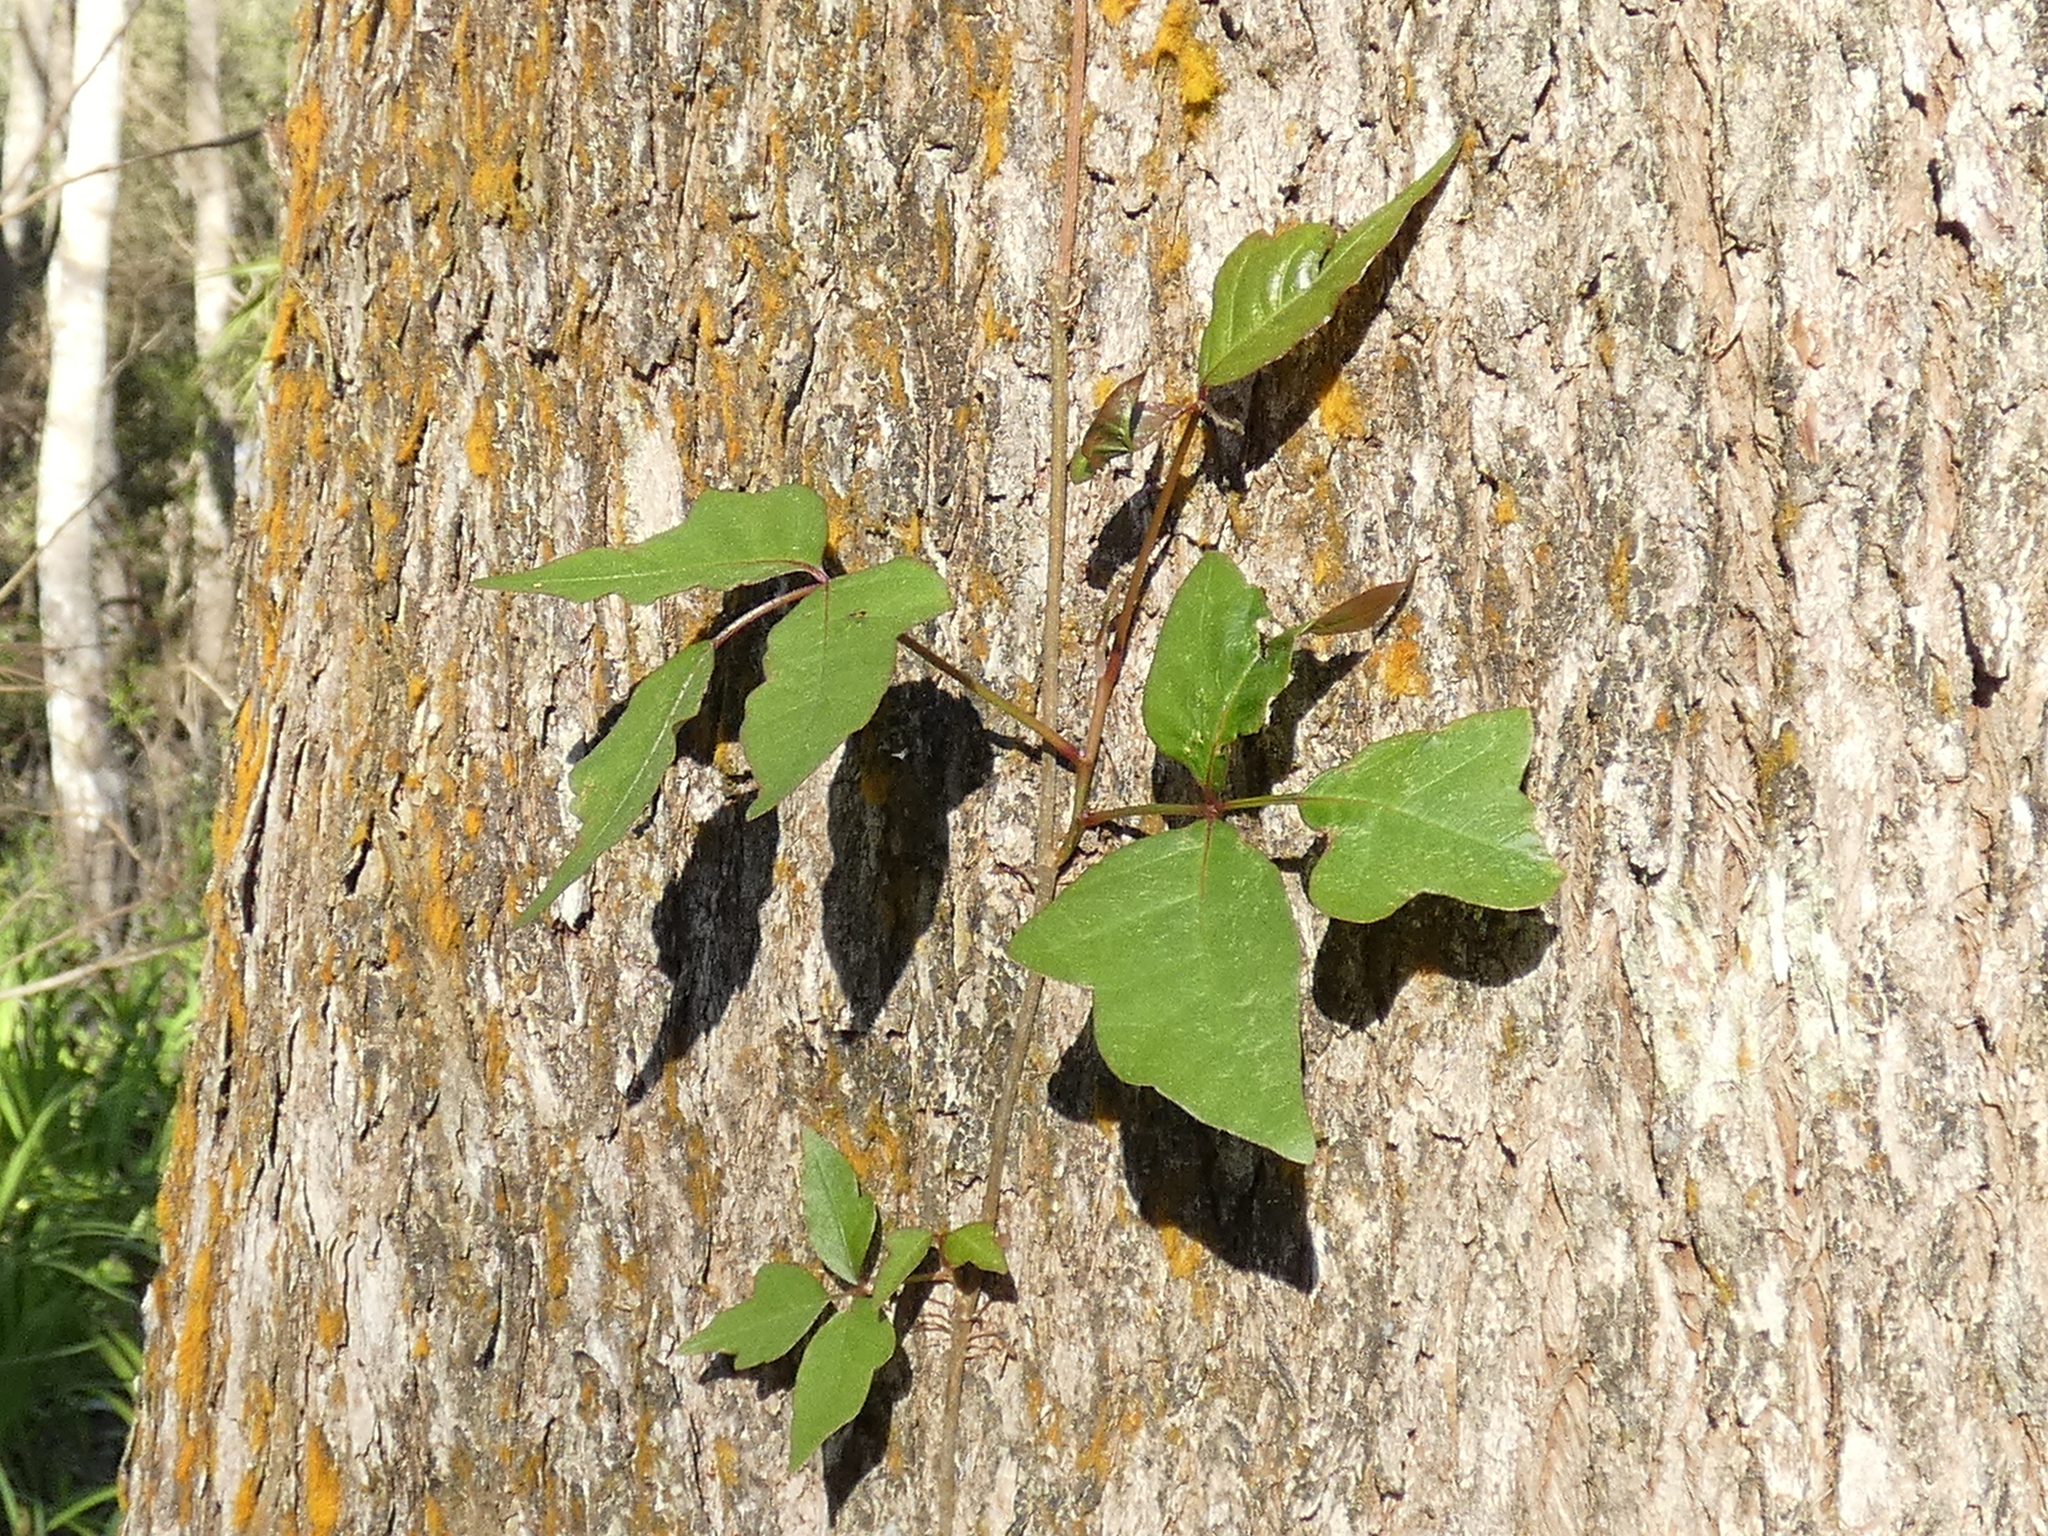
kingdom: Plantae
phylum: Tracheophyta
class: Magnoliopsida
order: Sapindales
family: Anacardiaceae
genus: Toxicodendron
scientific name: Toxicodendron radicans
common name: Poison ivy
